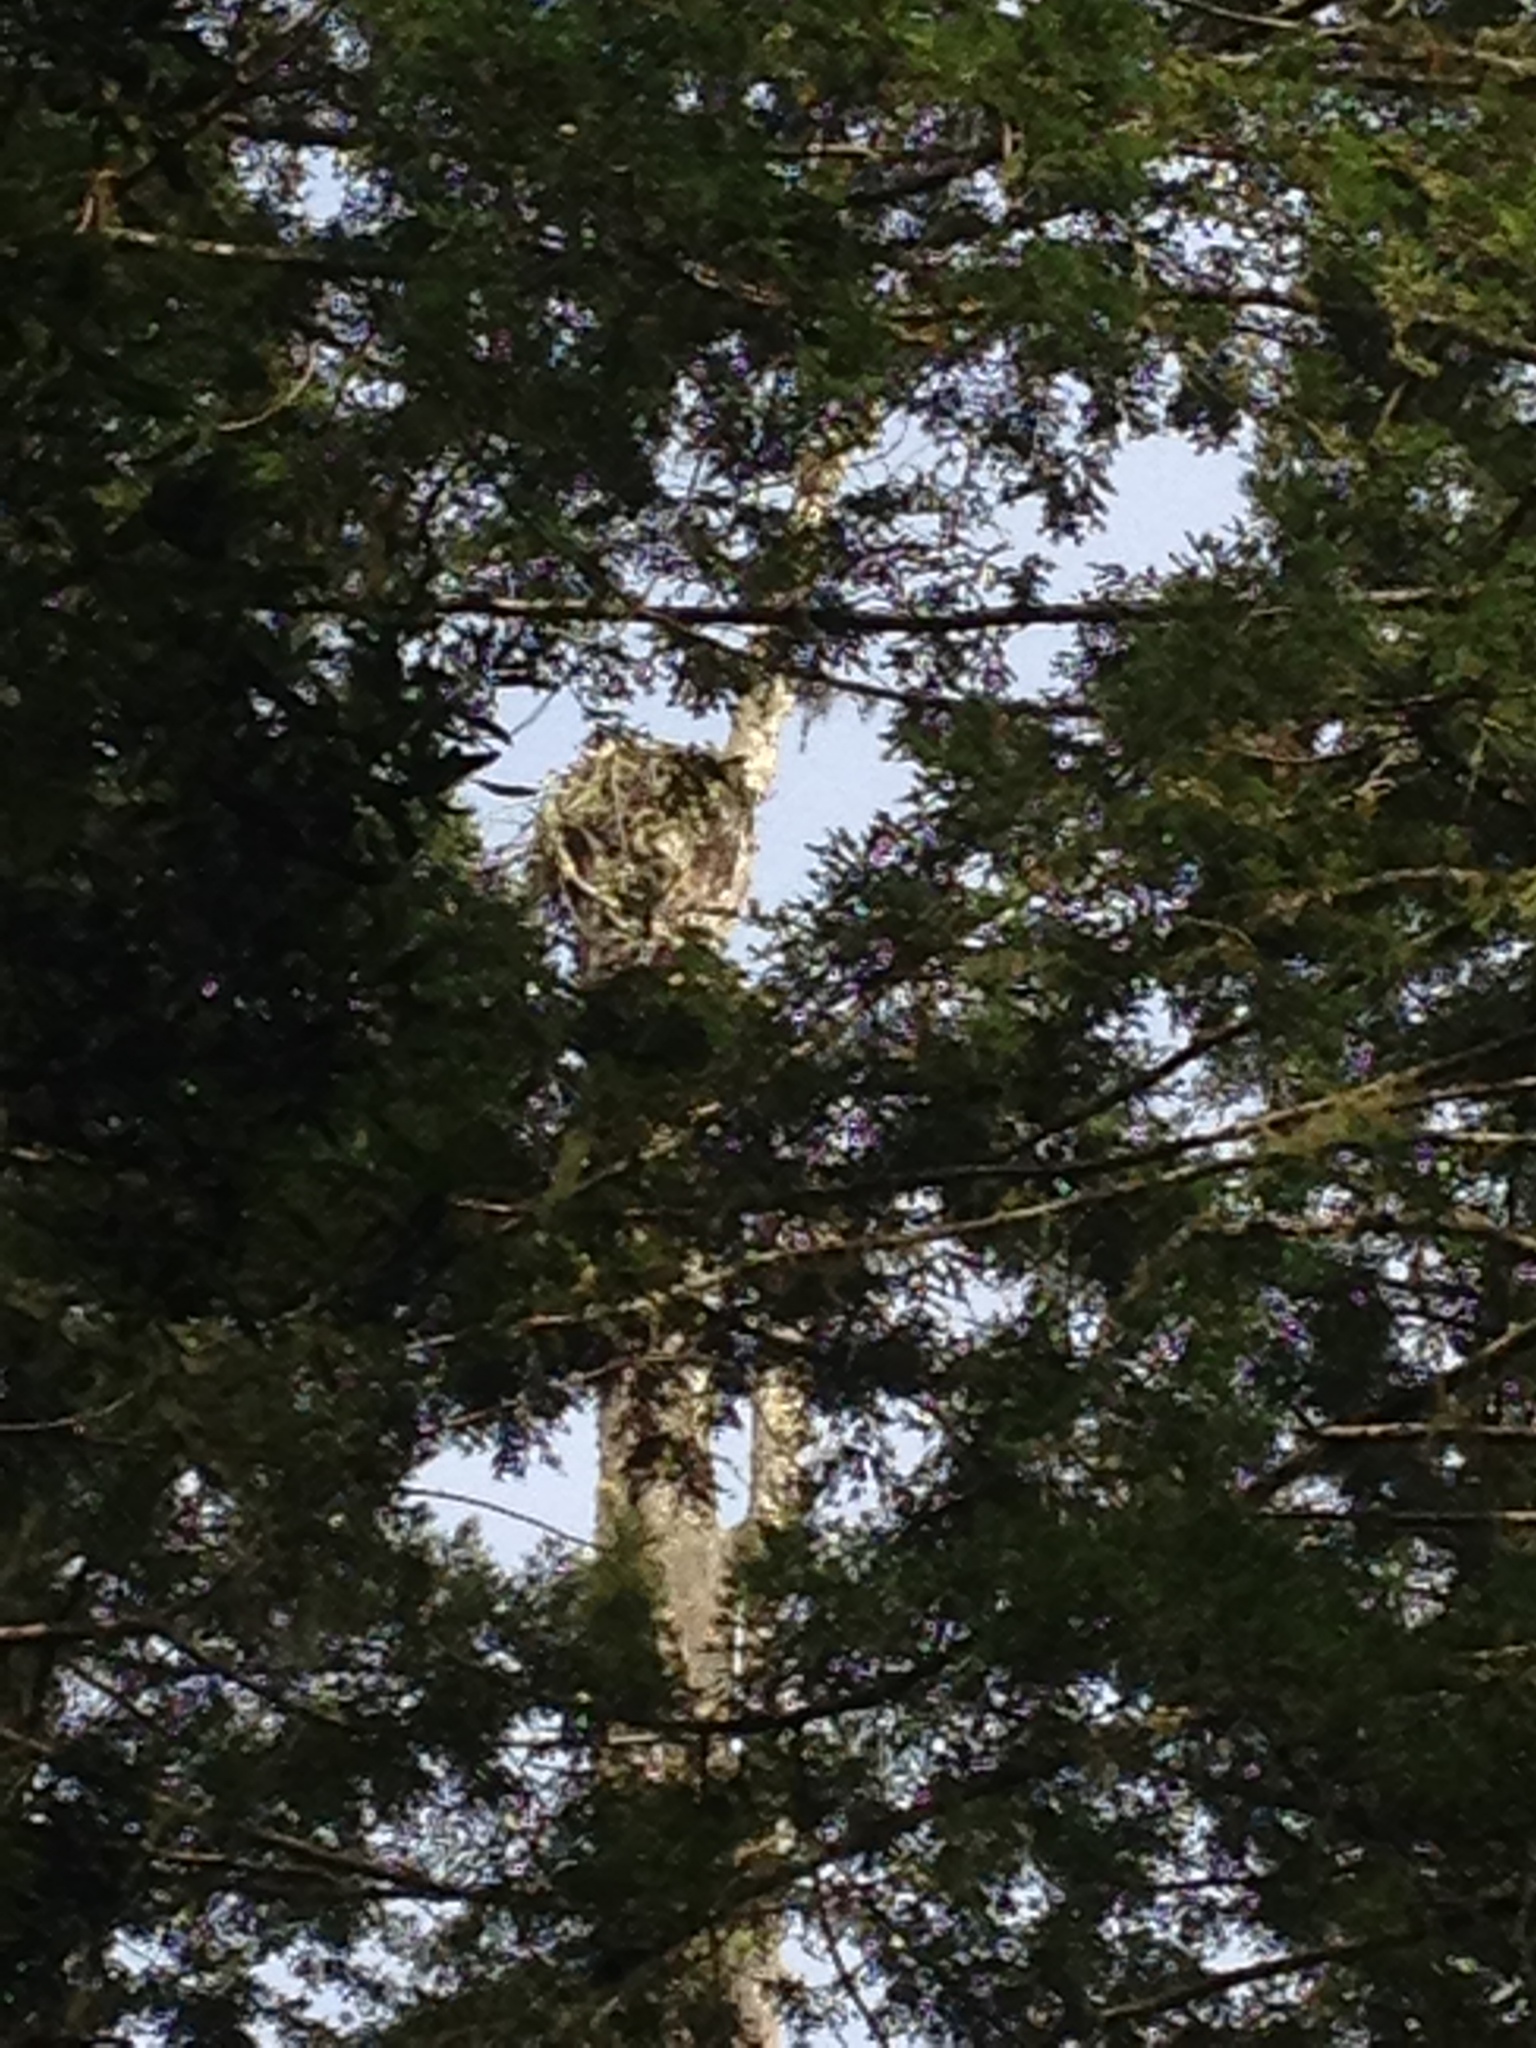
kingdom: Animalia
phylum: Chordata
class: Aves
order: Accipitriformes
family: Pandionidae
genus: Pandion
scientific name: Pandion haliaetus
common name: Osprey
